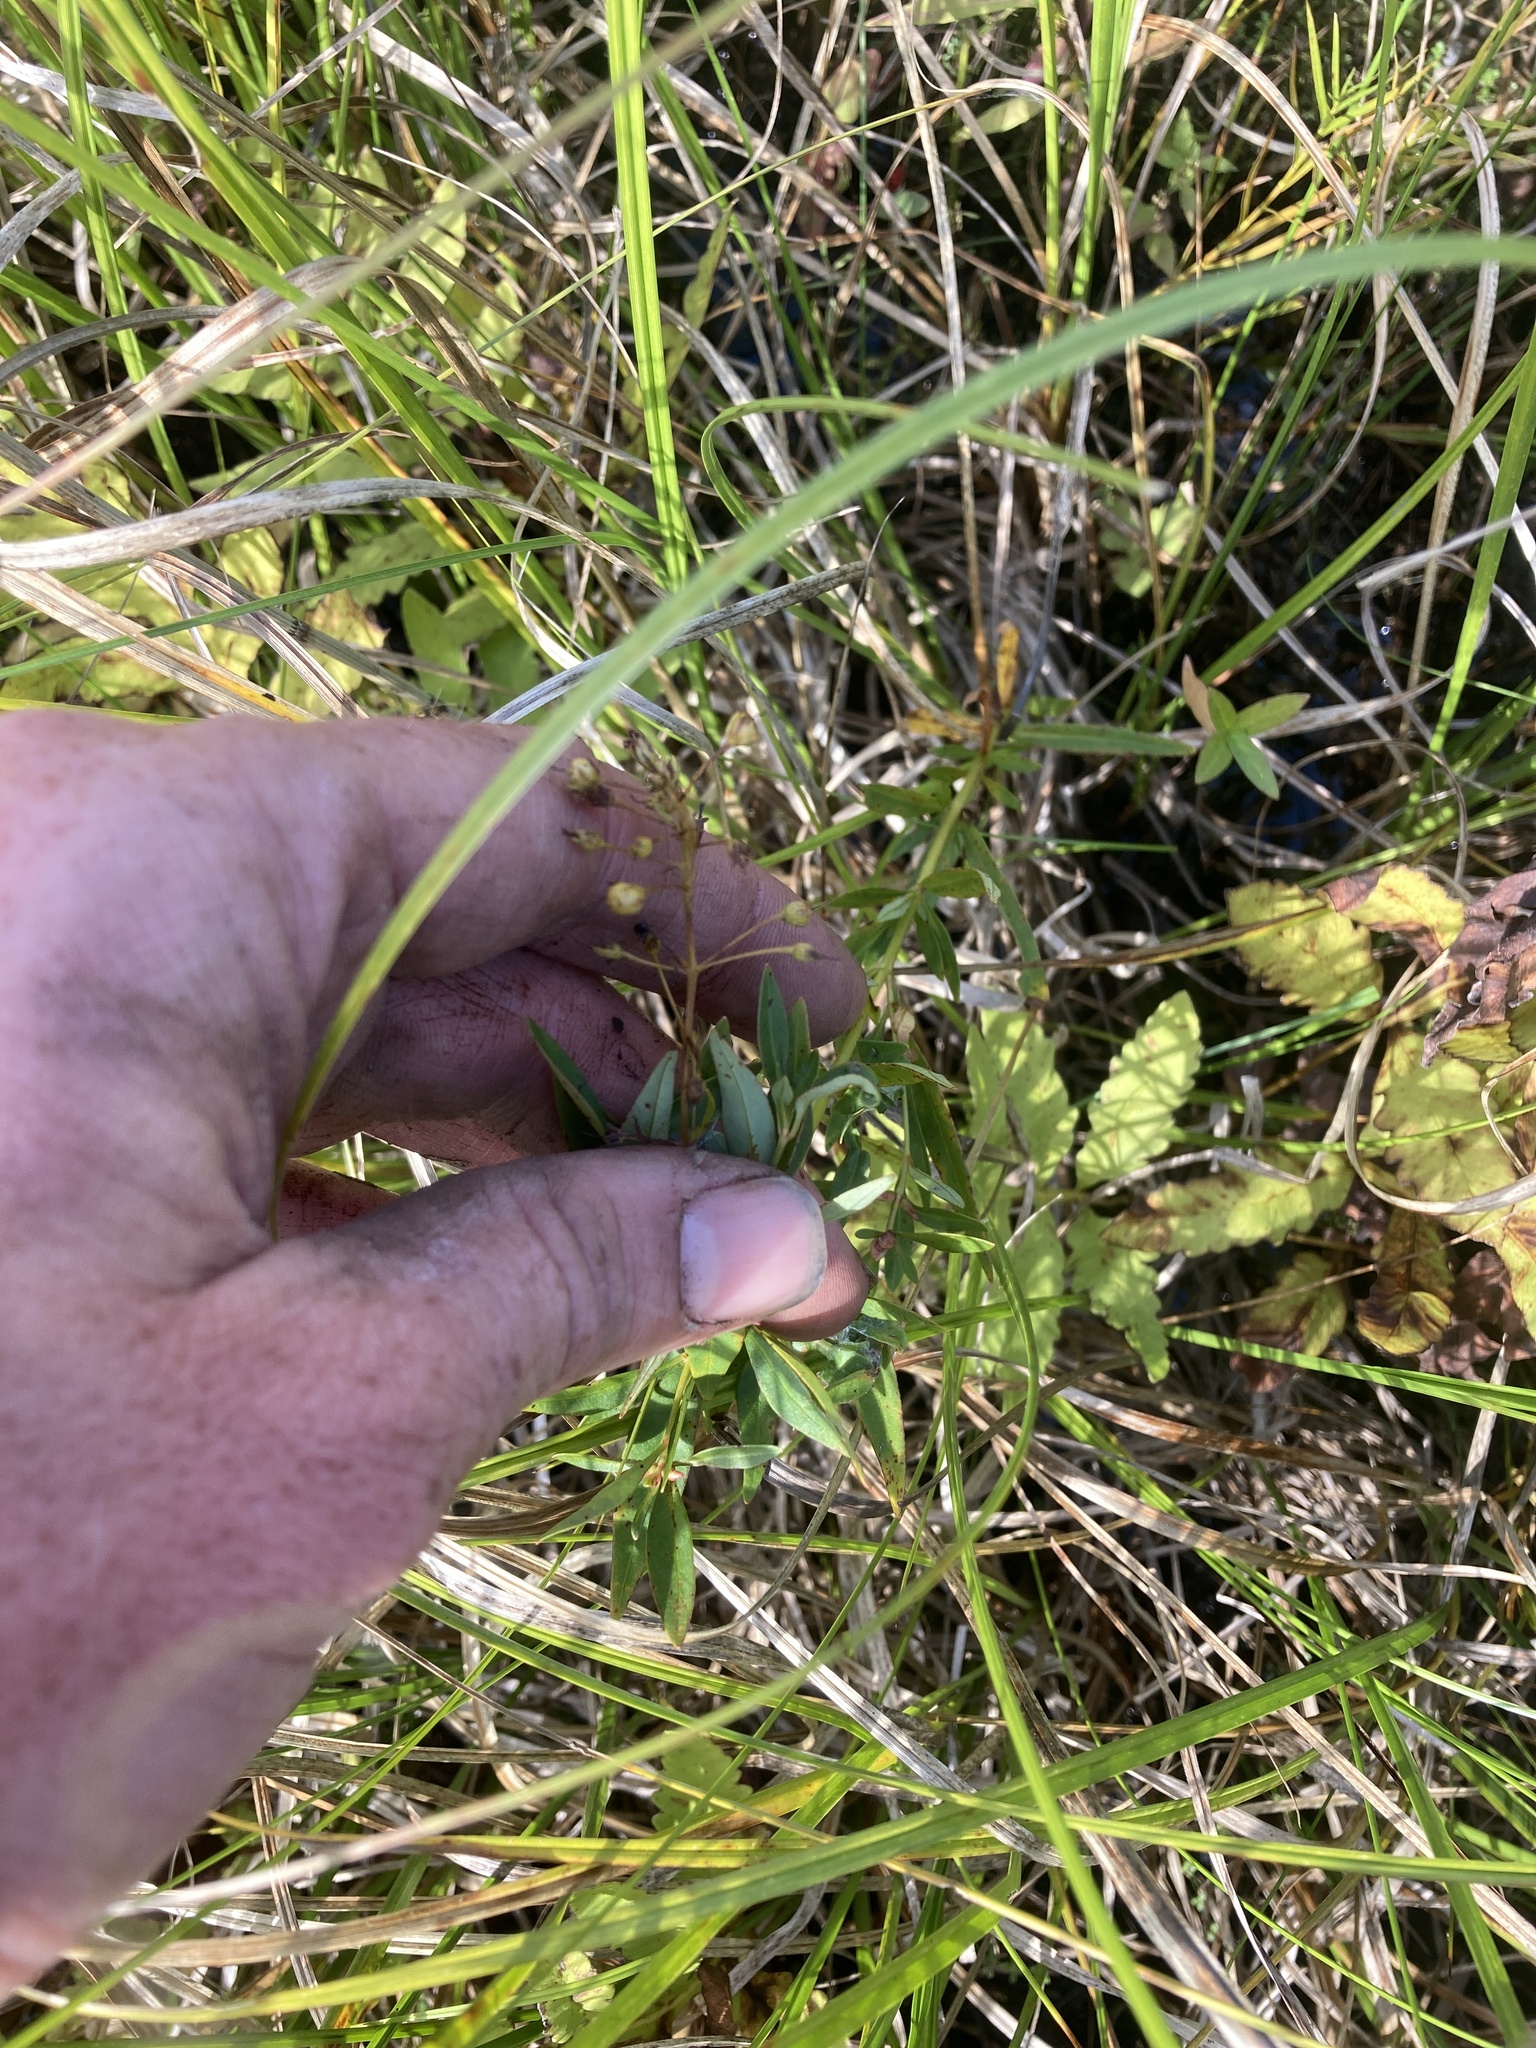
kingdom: Plantae
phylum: Tracheophyta
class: Magnoliopsida
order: Ericales
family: Primulaceae
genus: Lysimachia
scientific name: Lysimachia terrestris
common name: Lake loosestrife
